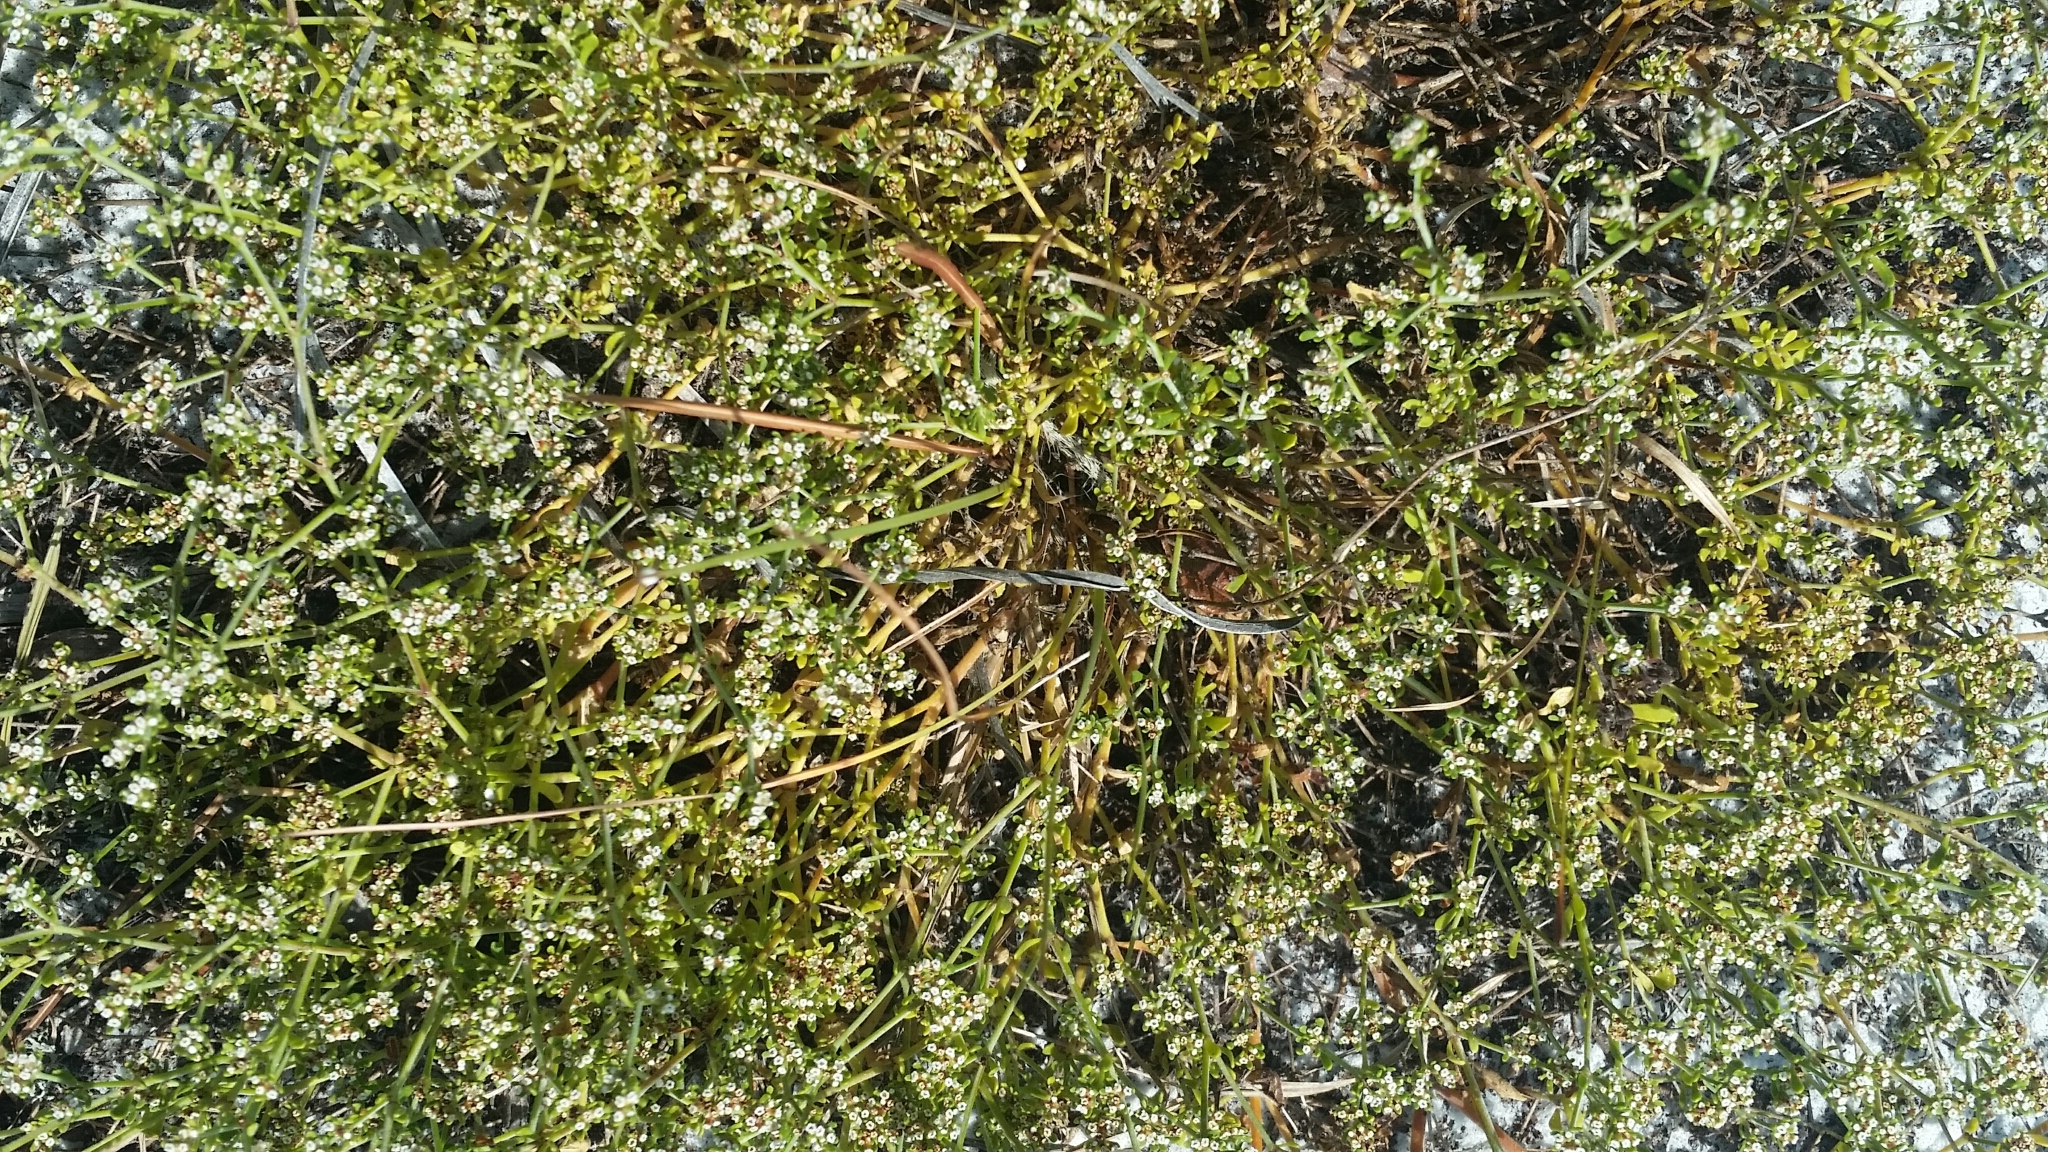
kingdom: Plantae
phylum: Tracheophyta
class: Magnoliopsida
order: Caryophyllales
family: Caryophyllaceae
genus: Paronychia
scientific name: Paronychia discoveryi
